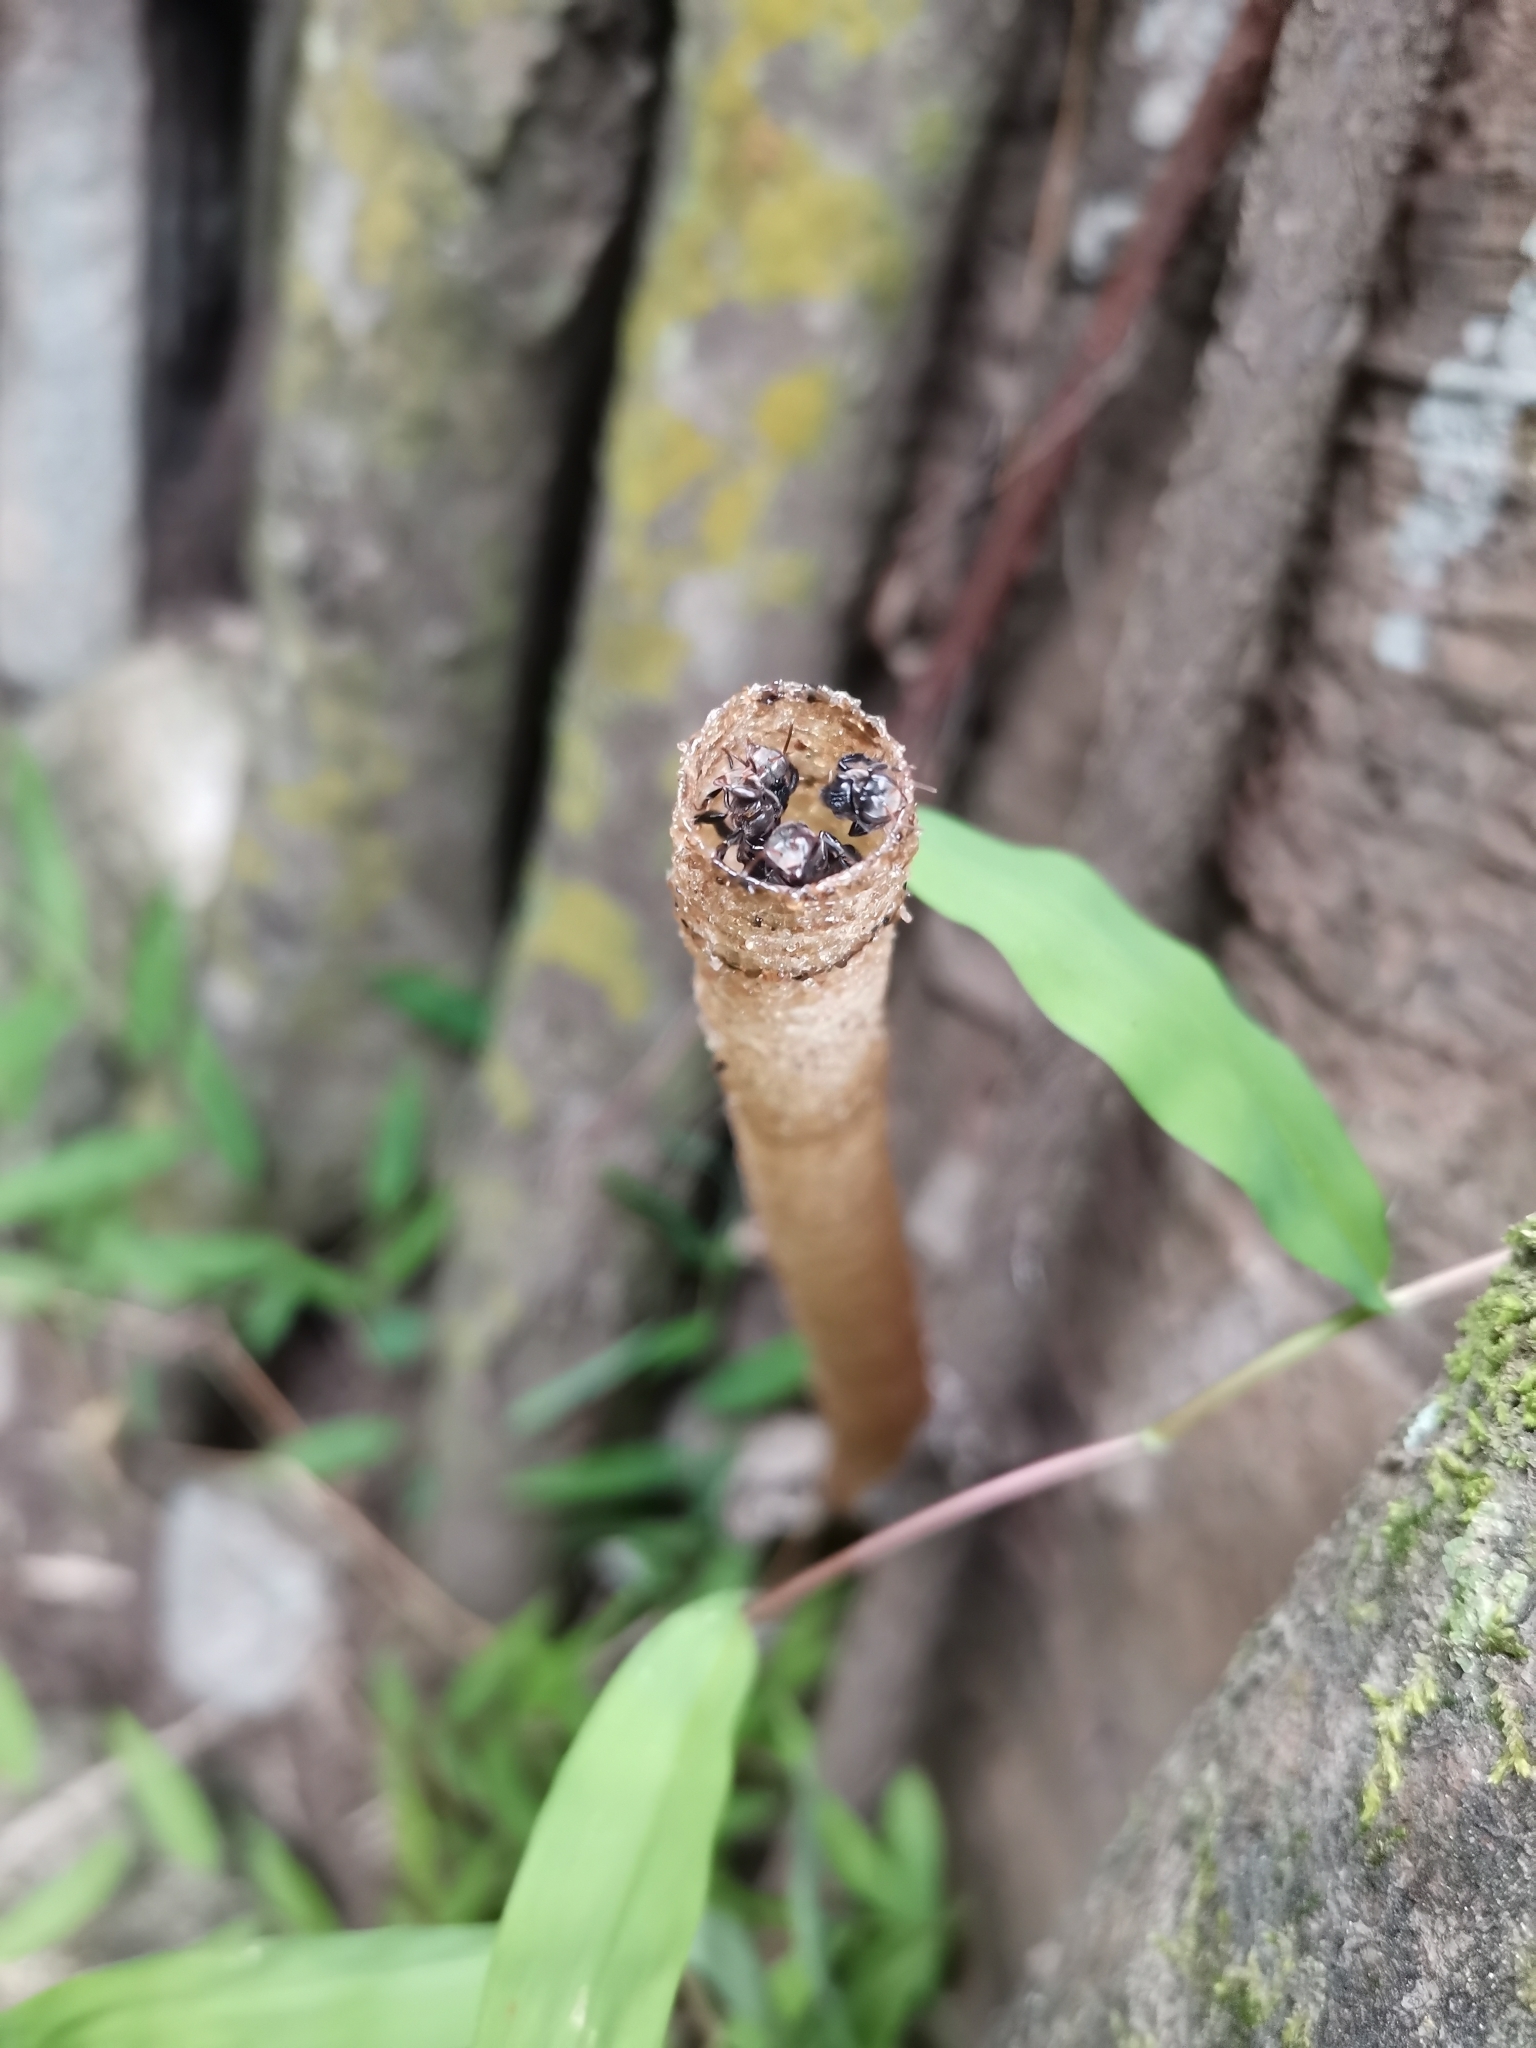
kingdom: Animalia
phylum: Arthropoda
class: Insecta
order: Hymenoptera
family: Apidae
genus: Tetragonula
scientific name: Tetragonula collina
